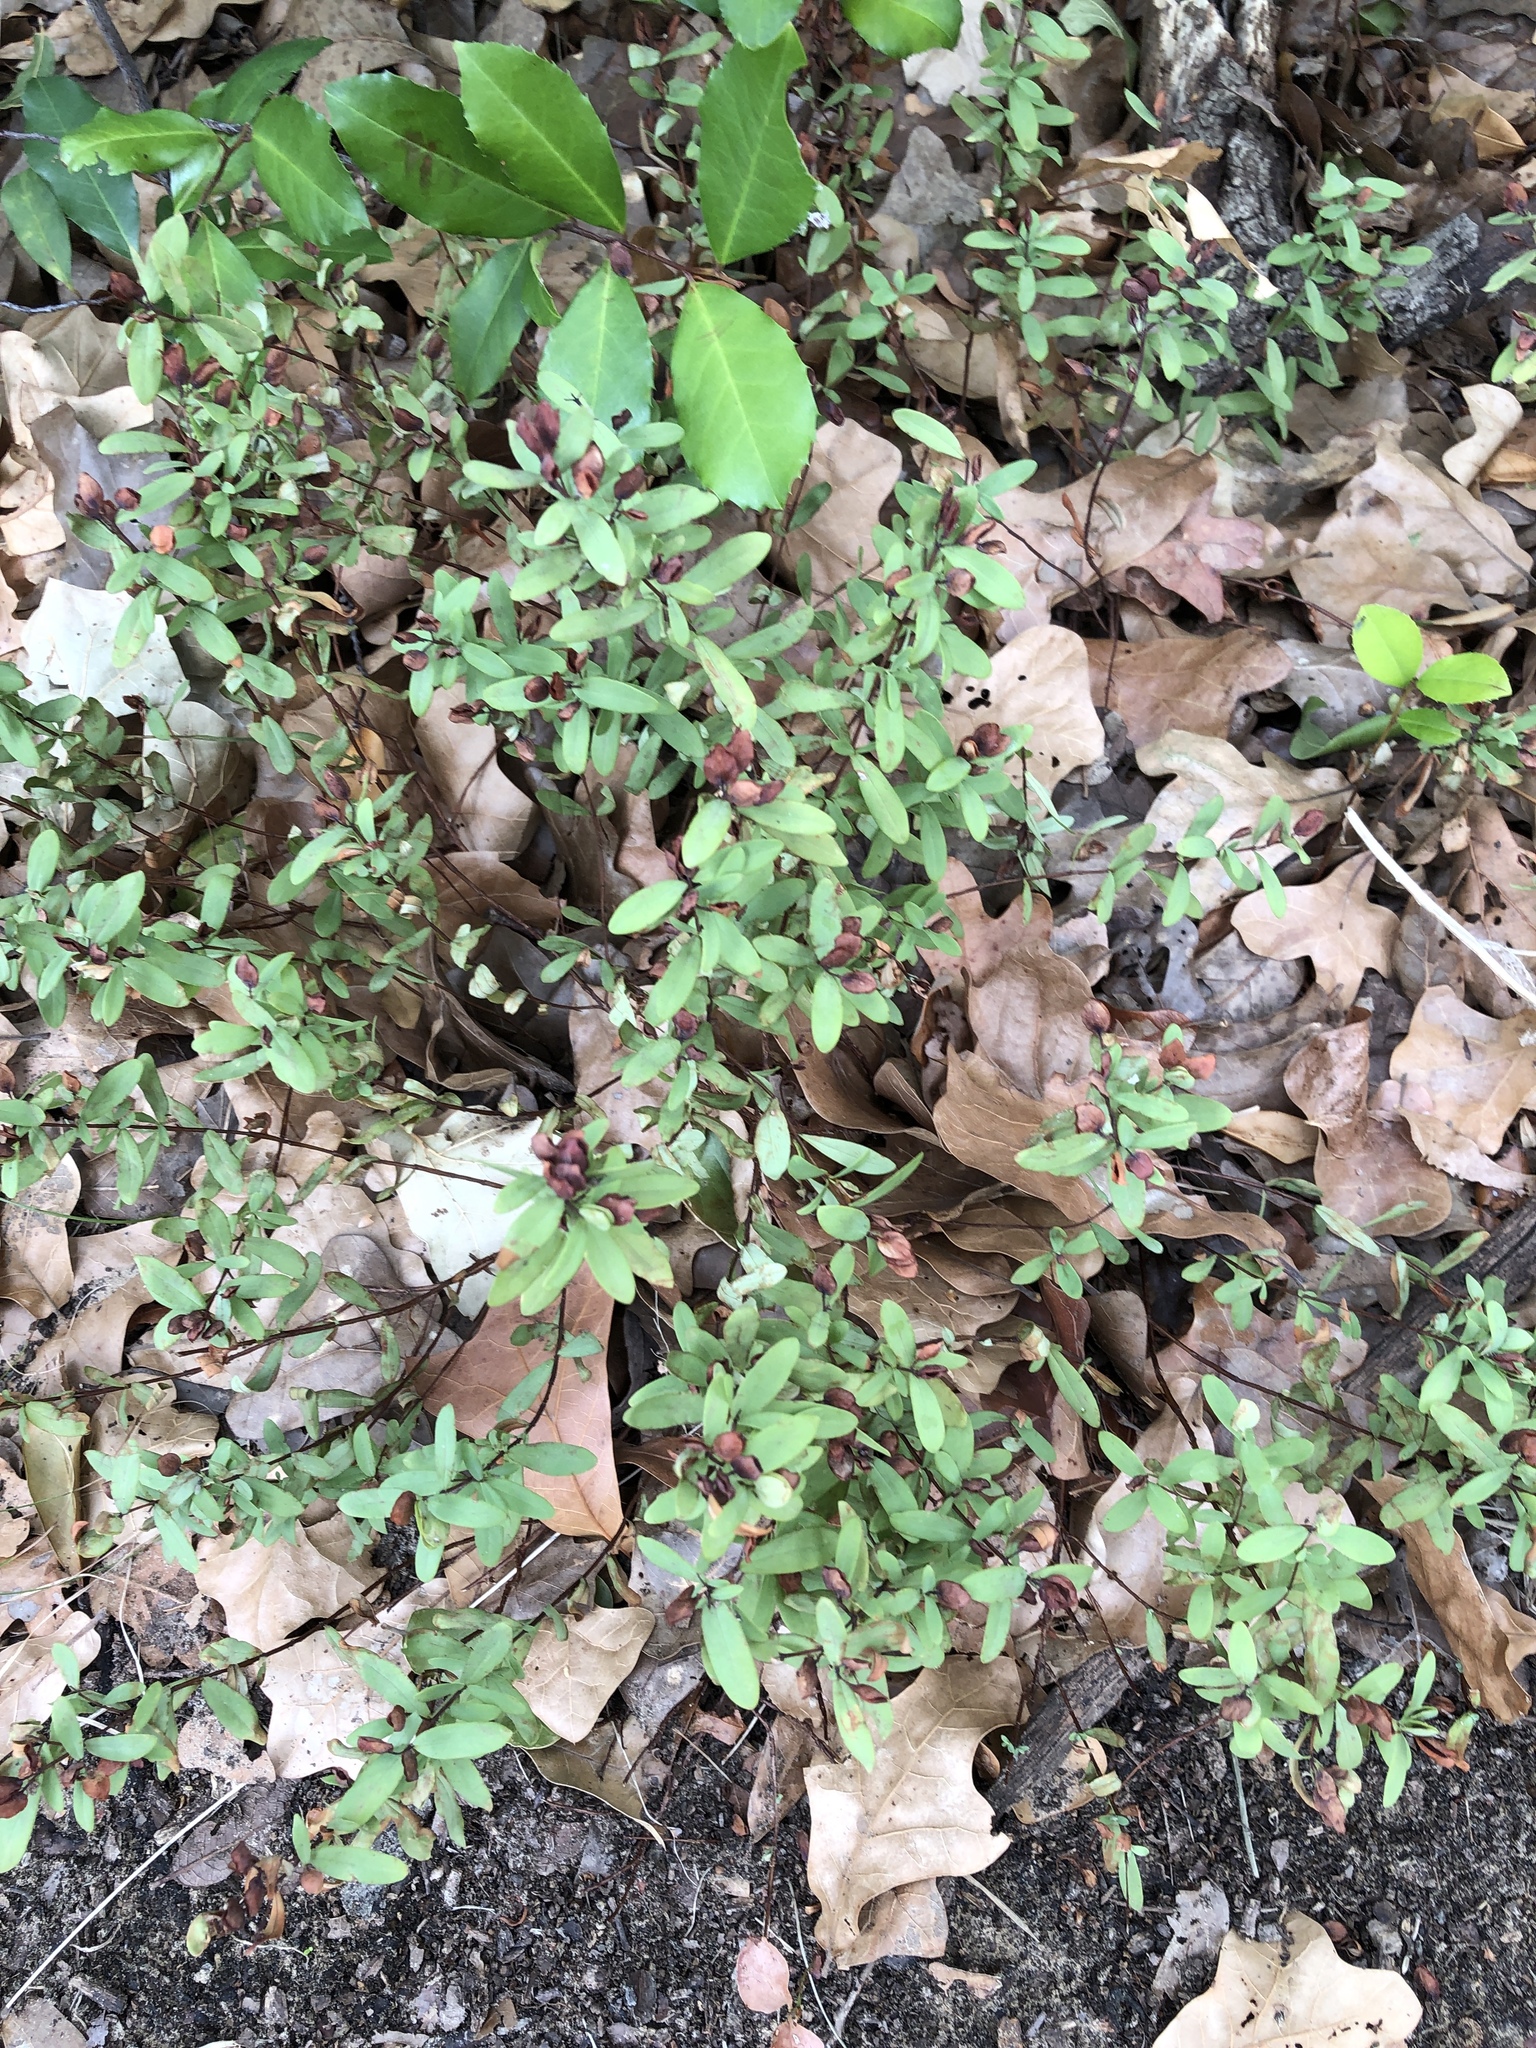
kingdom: Plantae
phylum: Tracheophyta
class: Magnoliopsida
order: Malpighiales
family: Hypericaceae
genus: Hypericum
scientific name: Hypericum hypericoides
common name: St. andrew's cross
